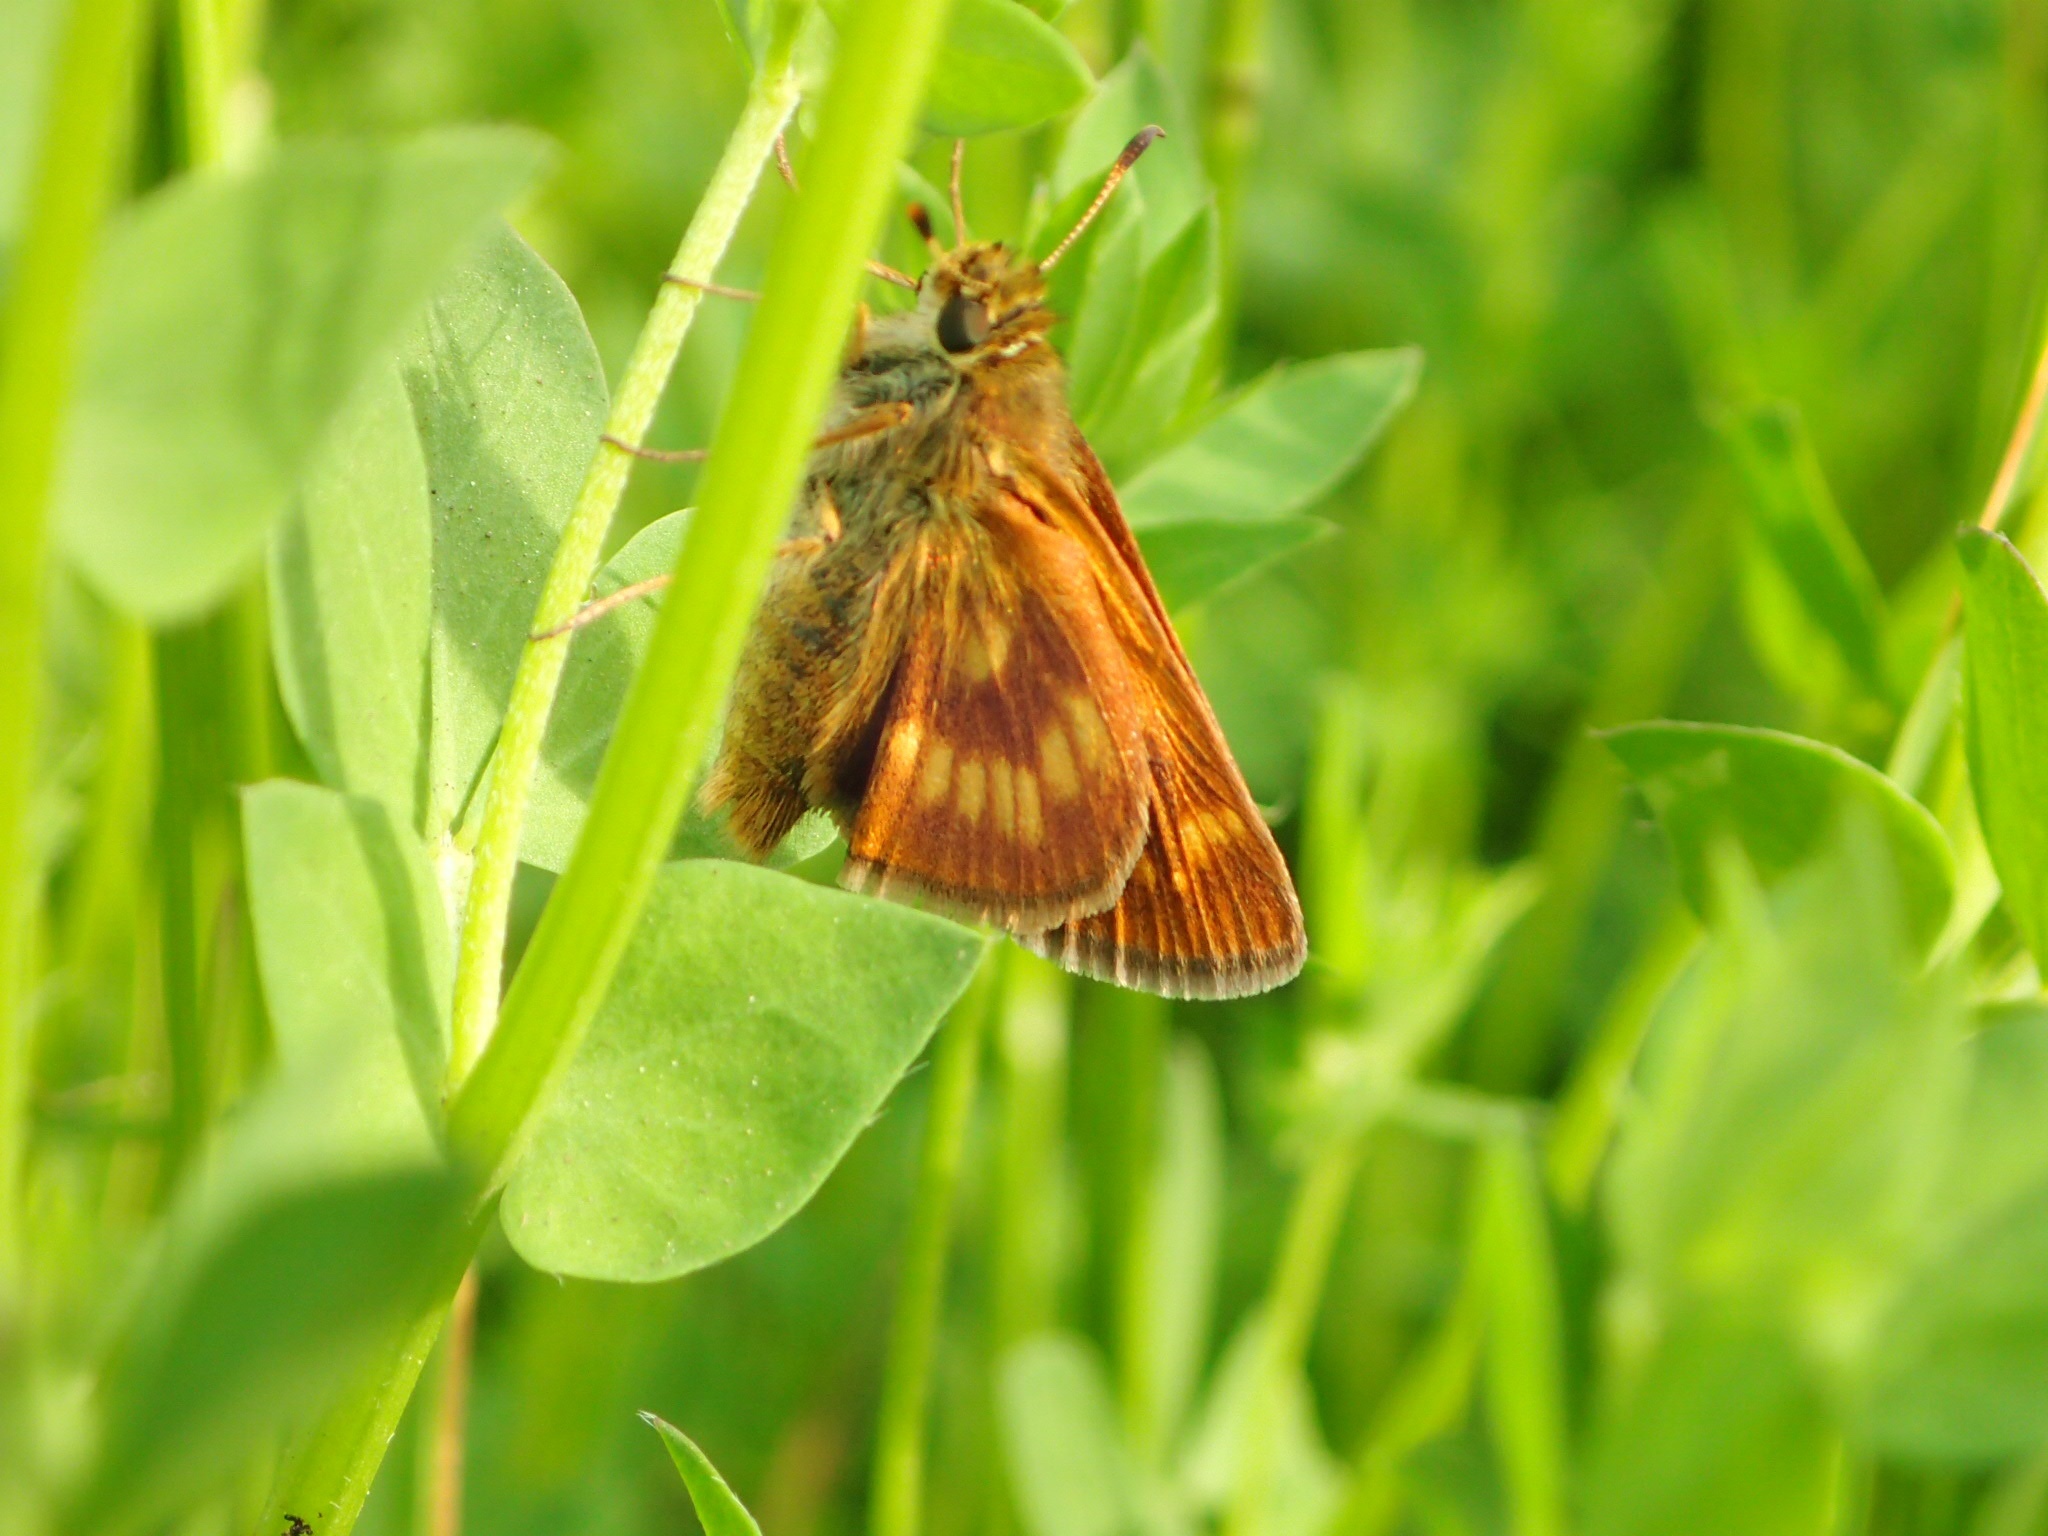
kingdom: Animalia
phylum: Arthropoda
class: Insecta
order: Lepidoptera
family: Hesperiidae
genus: Polites
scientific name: Polites mystic
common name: Long dash
